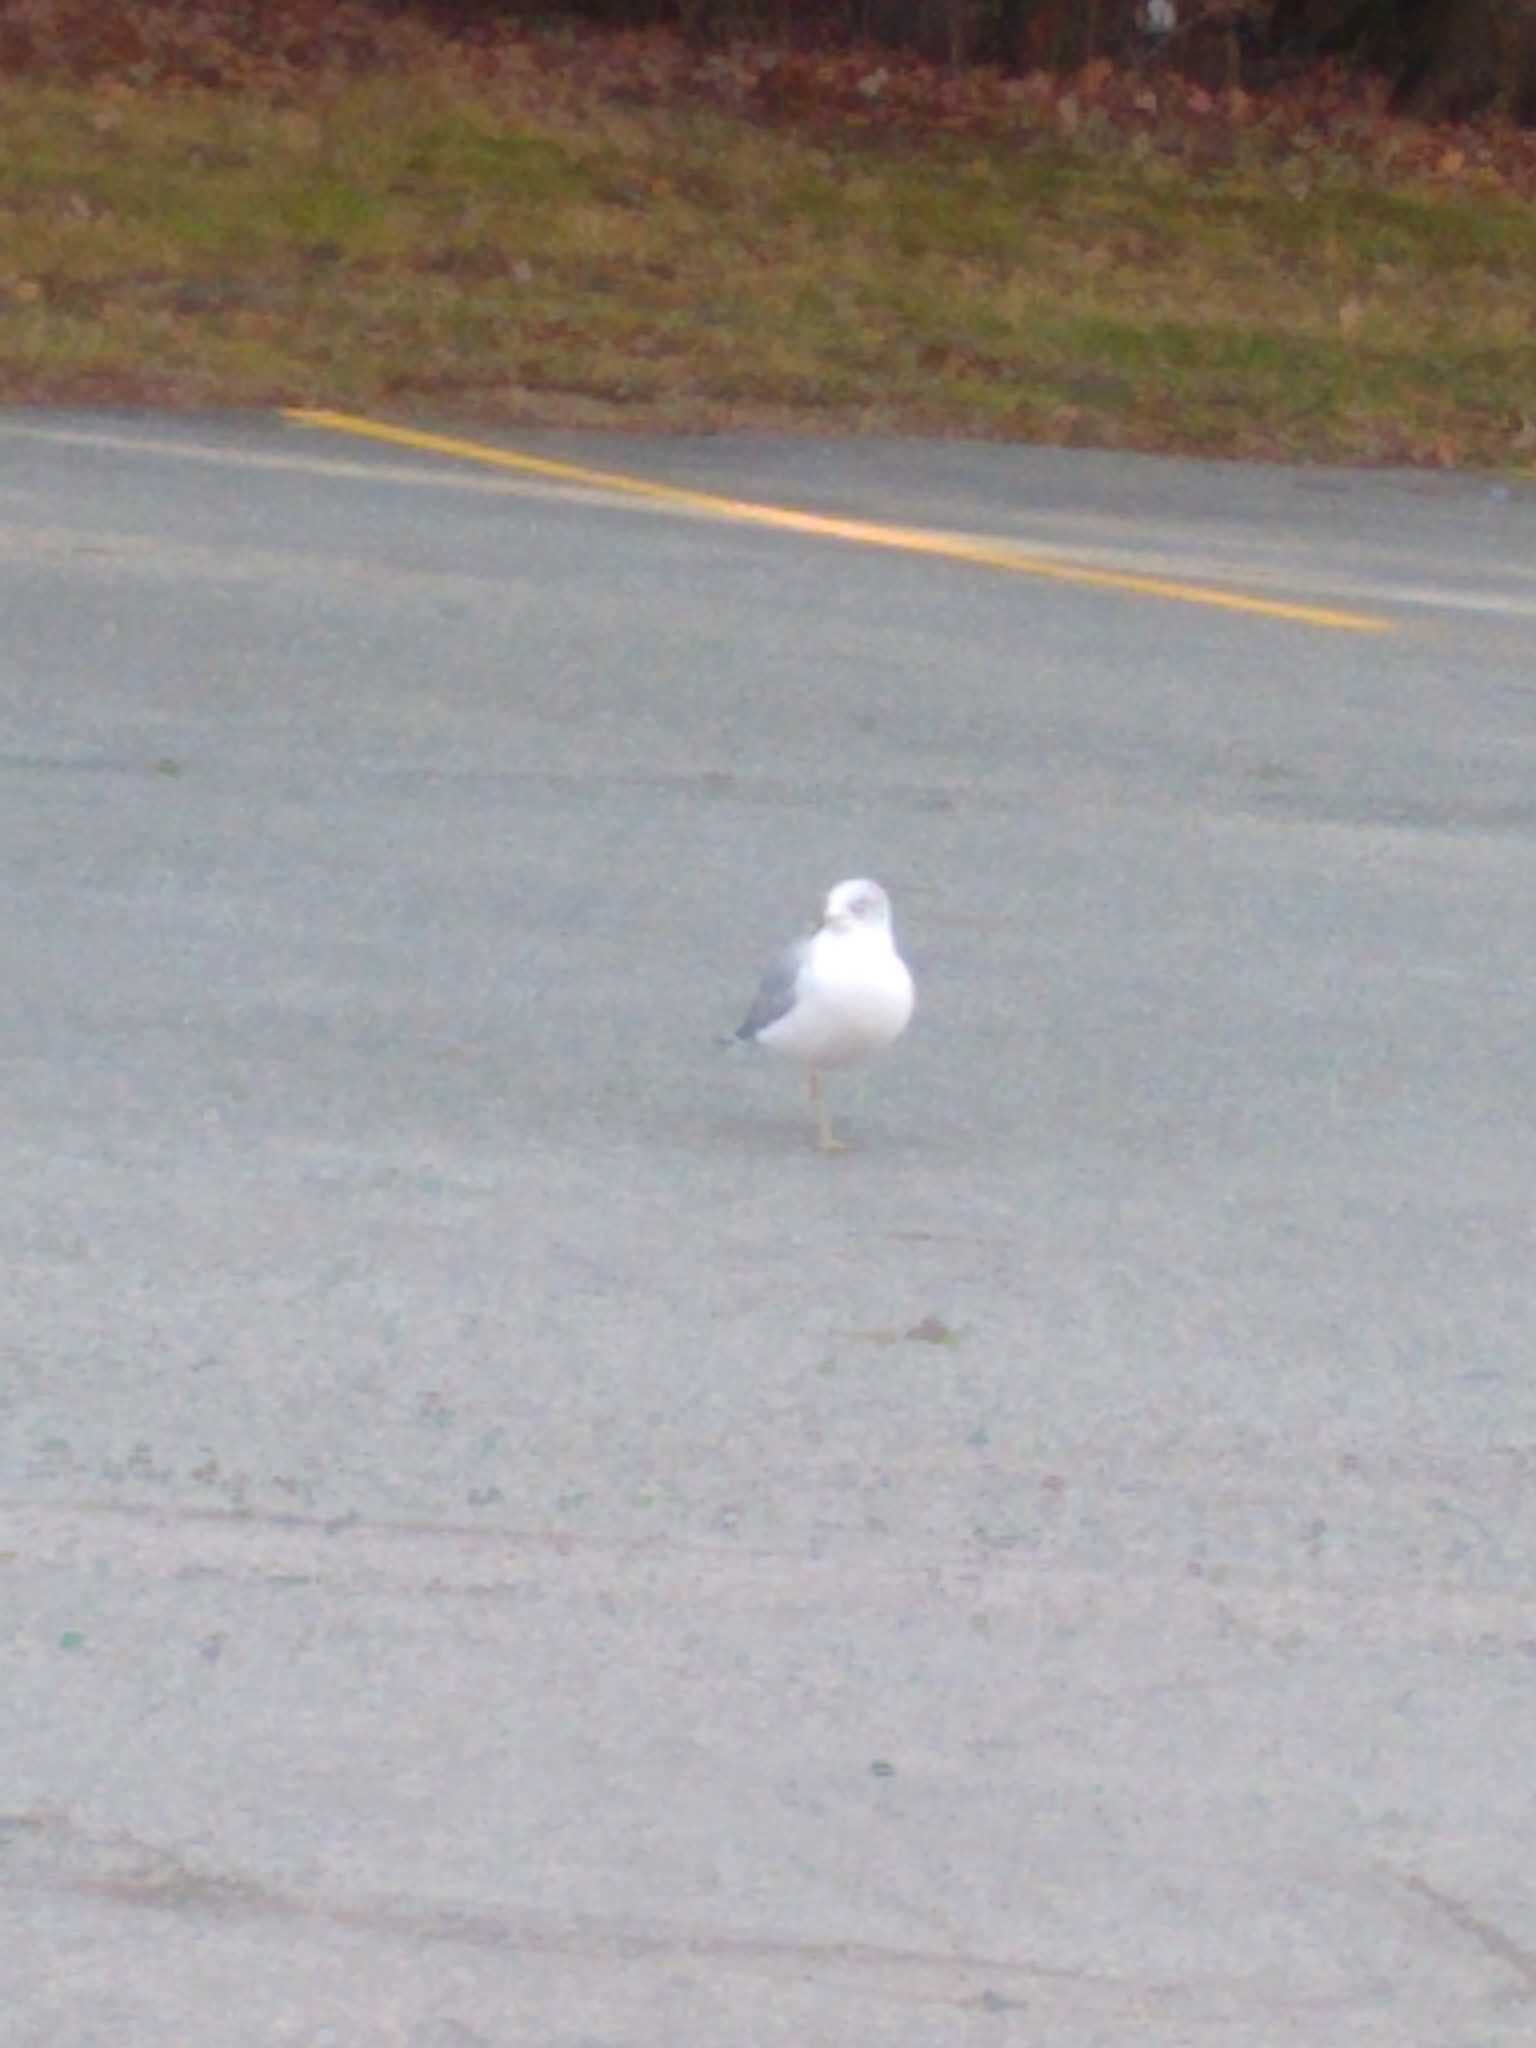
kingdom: Animalia
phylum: Chordata
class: Aves
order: Charadriiformes
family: Laridae
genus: Larus
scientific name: Larus delawarensis
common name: Ring-billed gull
